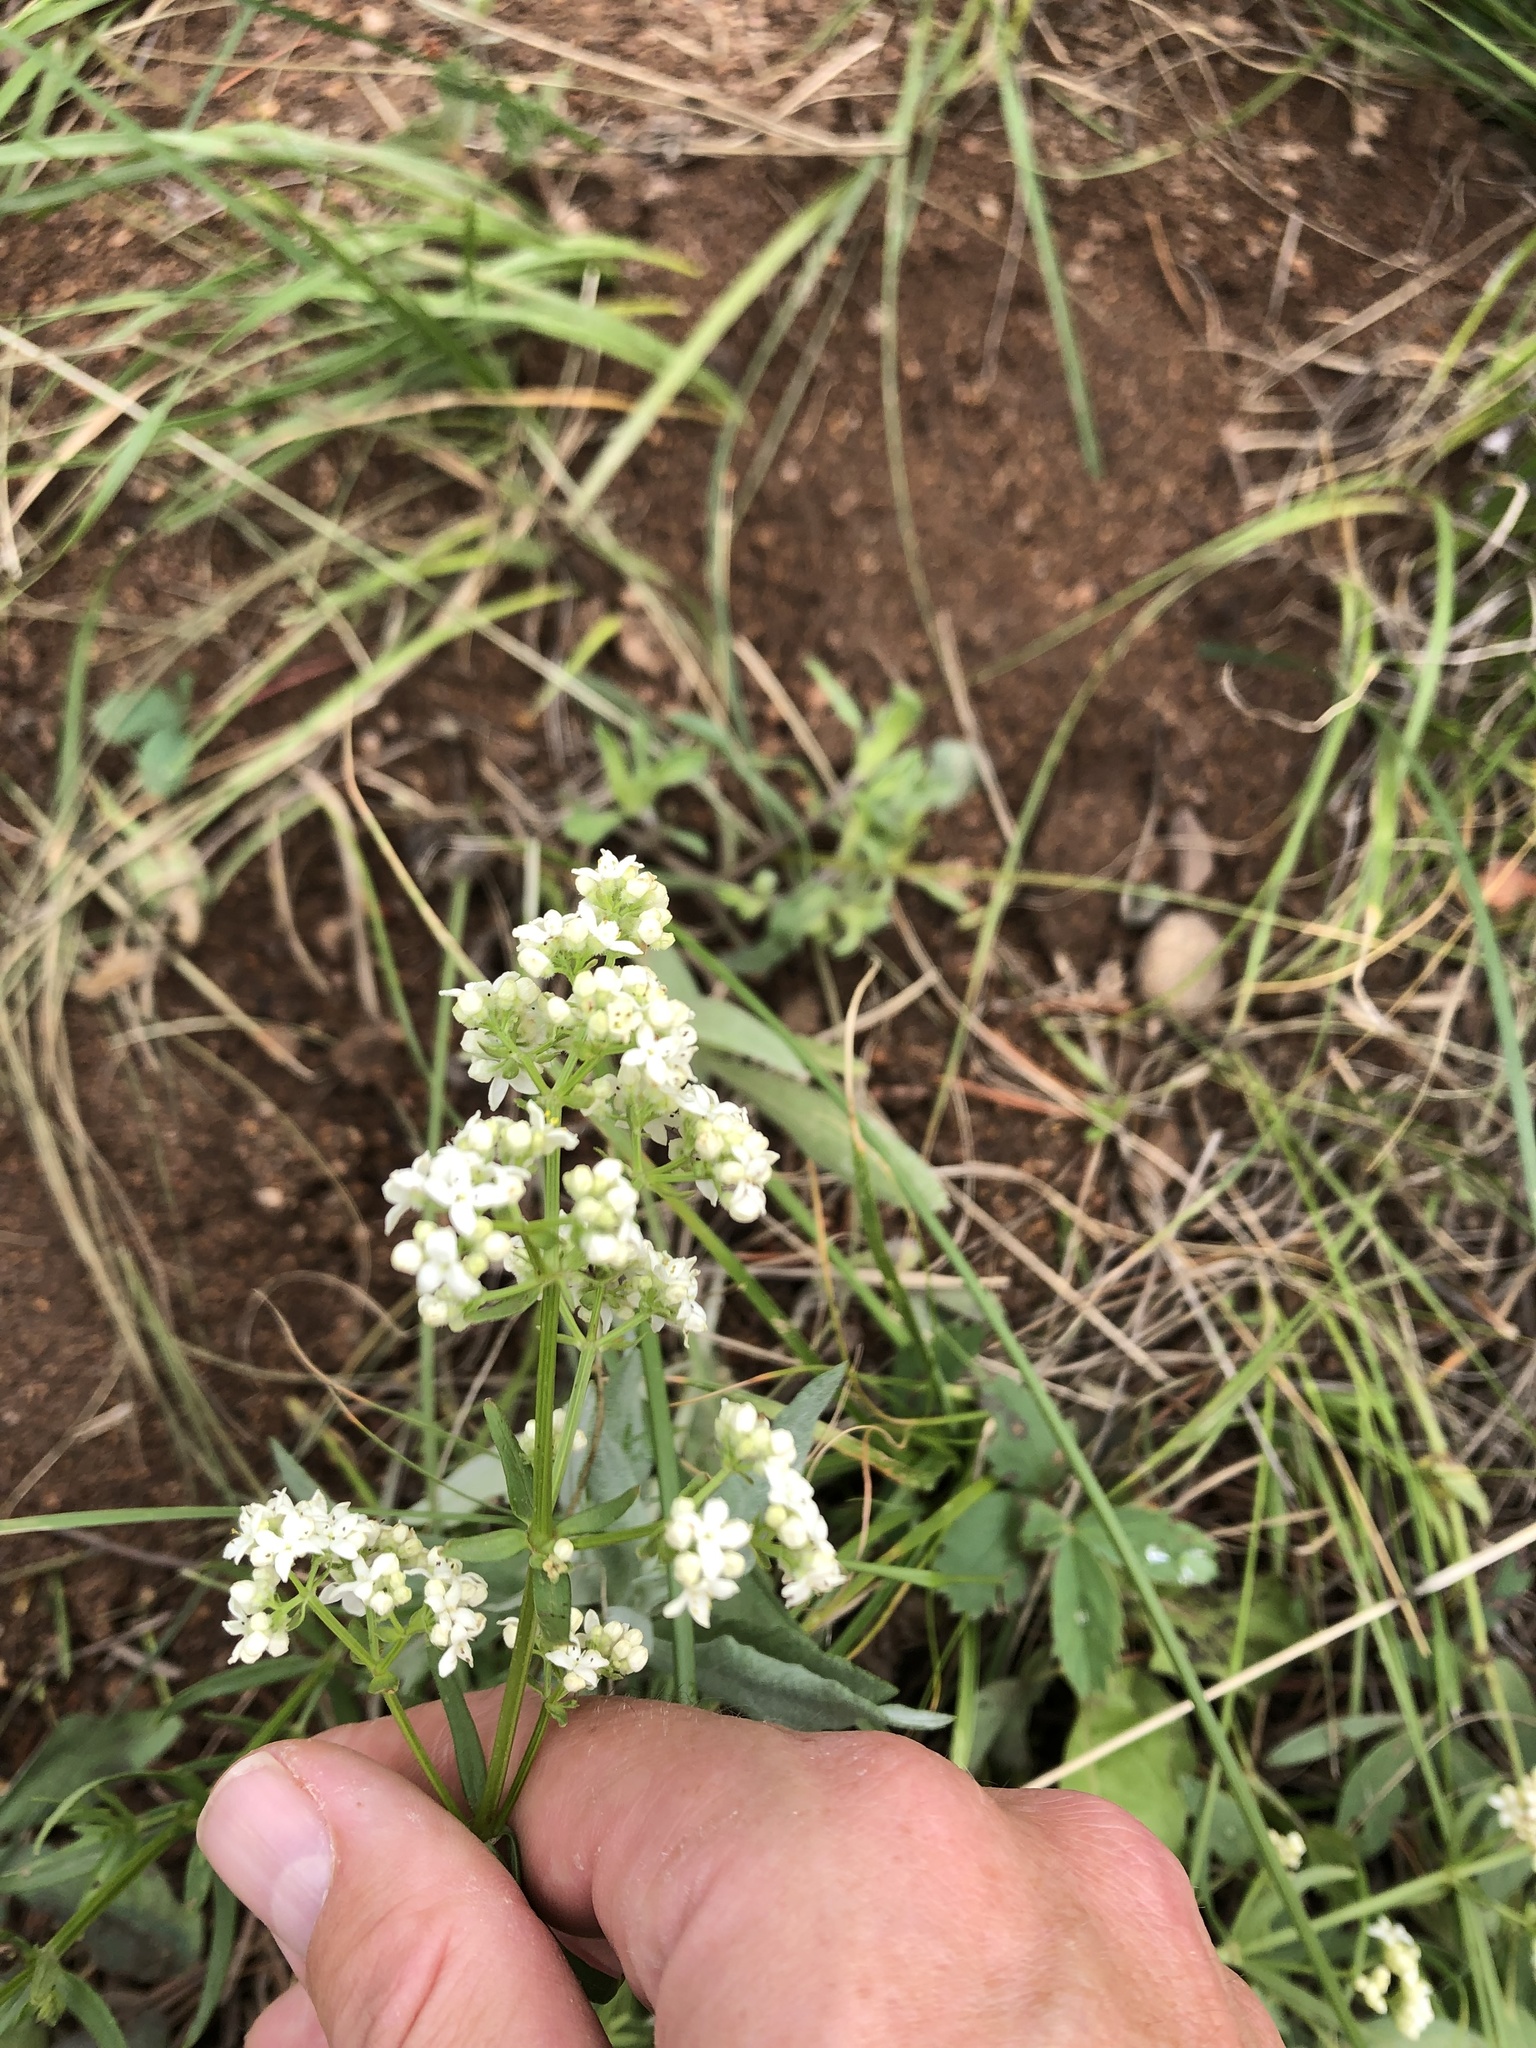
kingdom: Plantae
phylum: Tracheophyta
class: Magnoliopsida
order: Gentianales
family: Rubiaceae
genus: Galium
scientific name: Galium boreale
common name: Northern bedstraw
